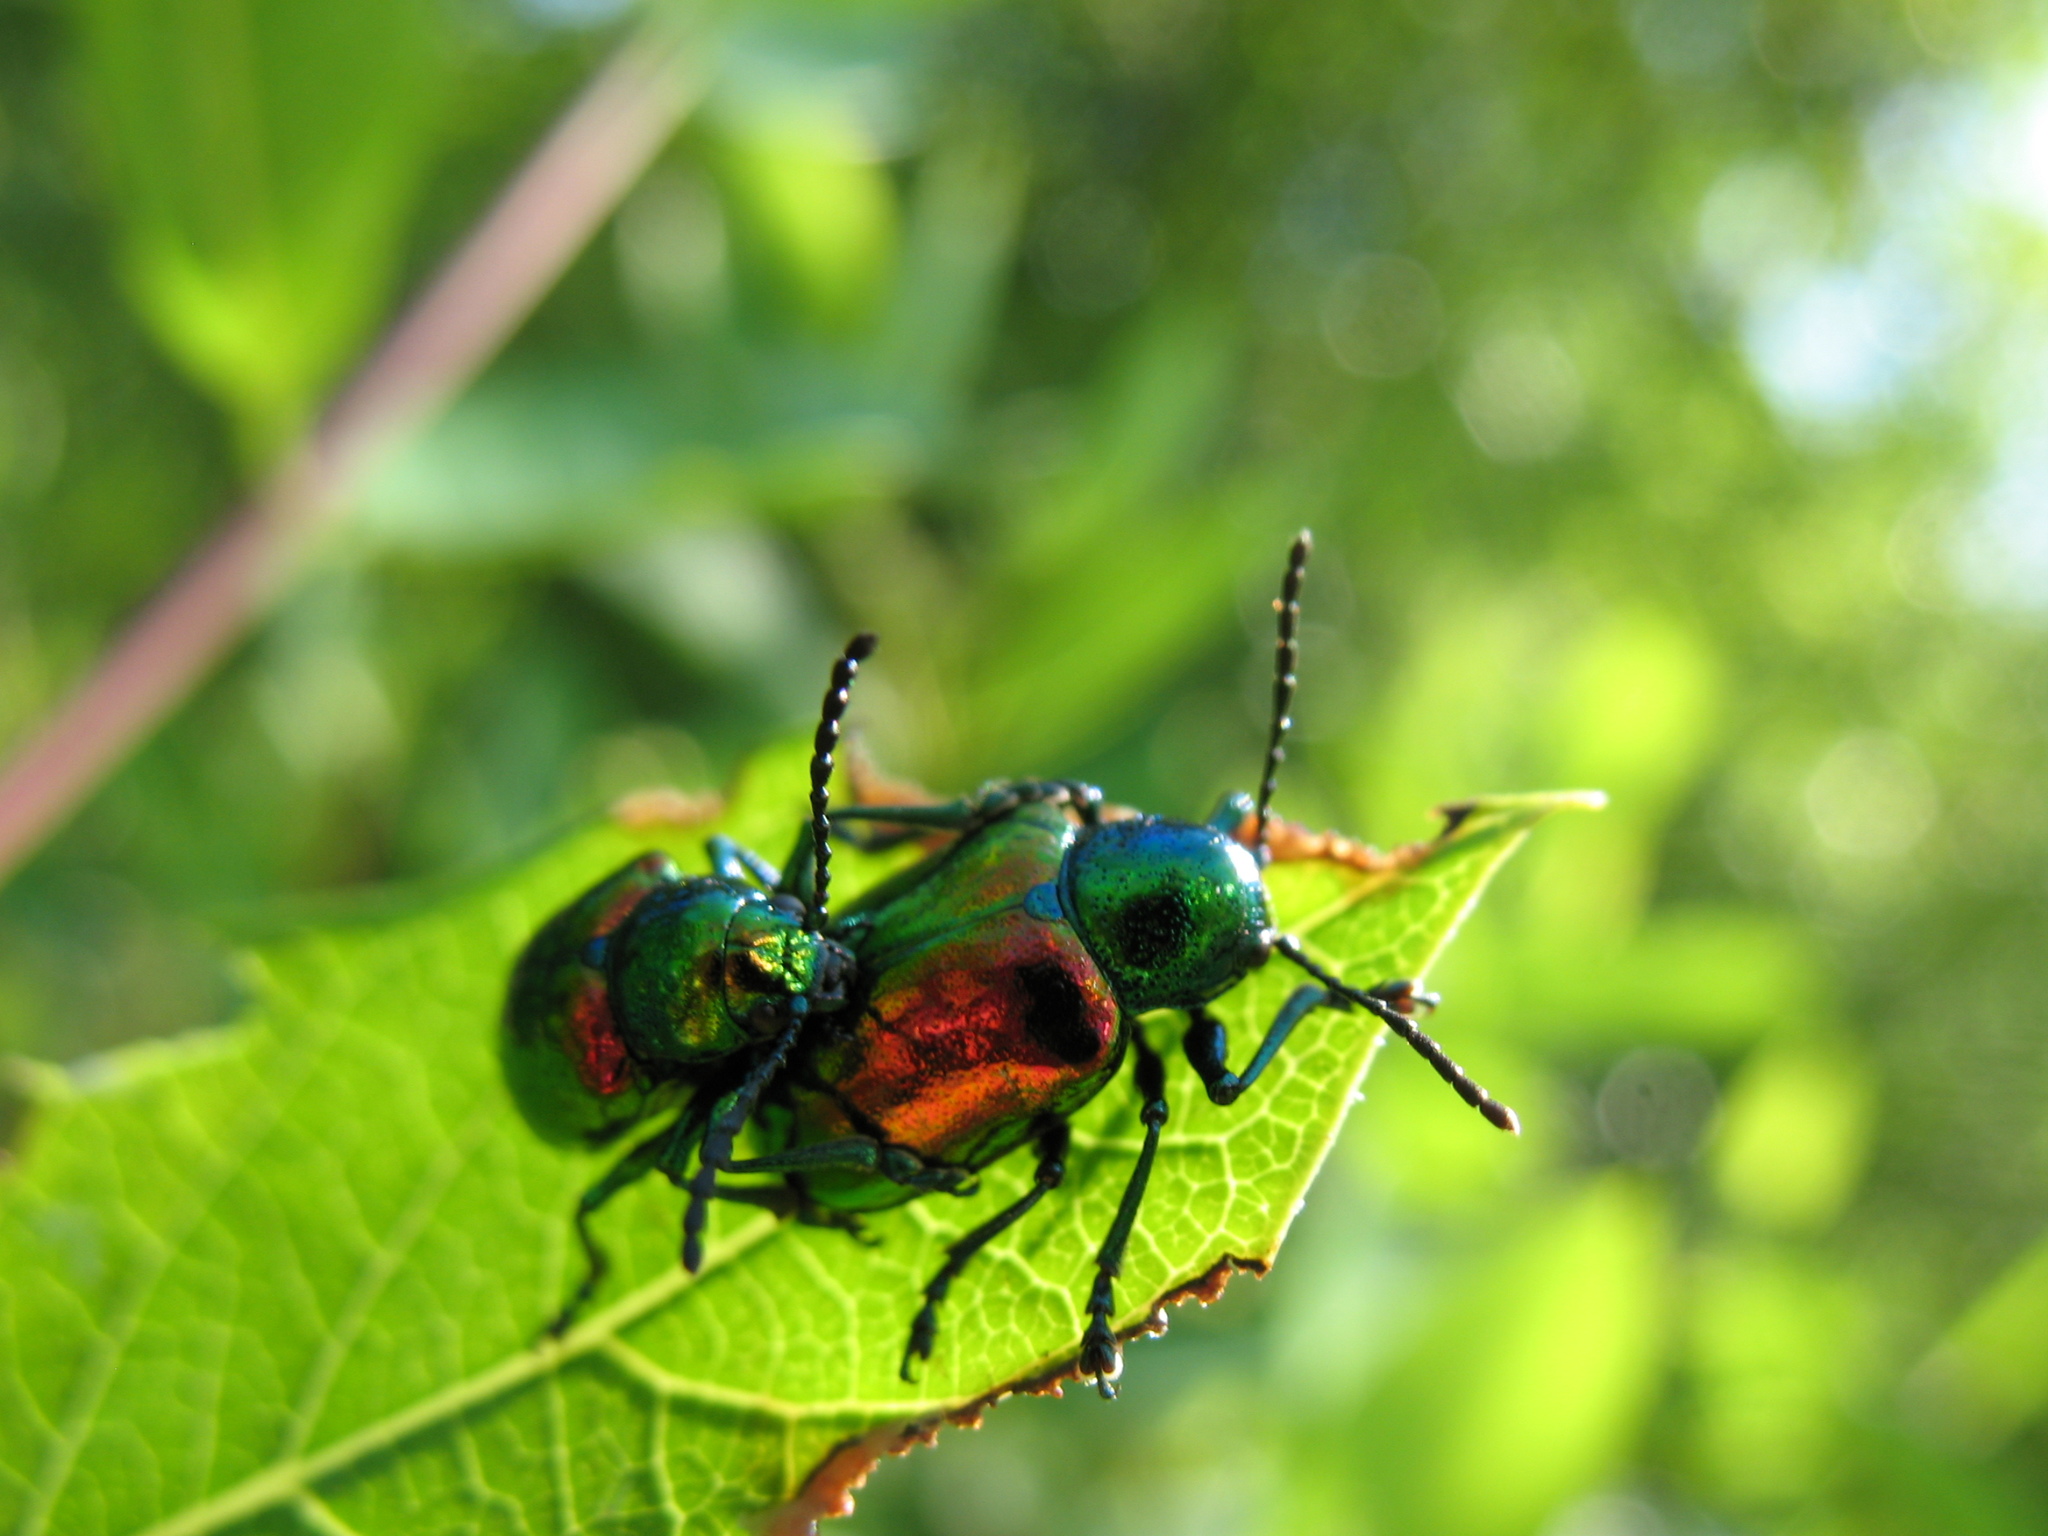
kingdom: Animalia
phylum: Arthropoda
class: Insecta
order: Coleoptera
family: Chrysomelidae
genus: Chrysochus
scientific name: Chrysochus auratus
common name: Dogbane leaf beetle
